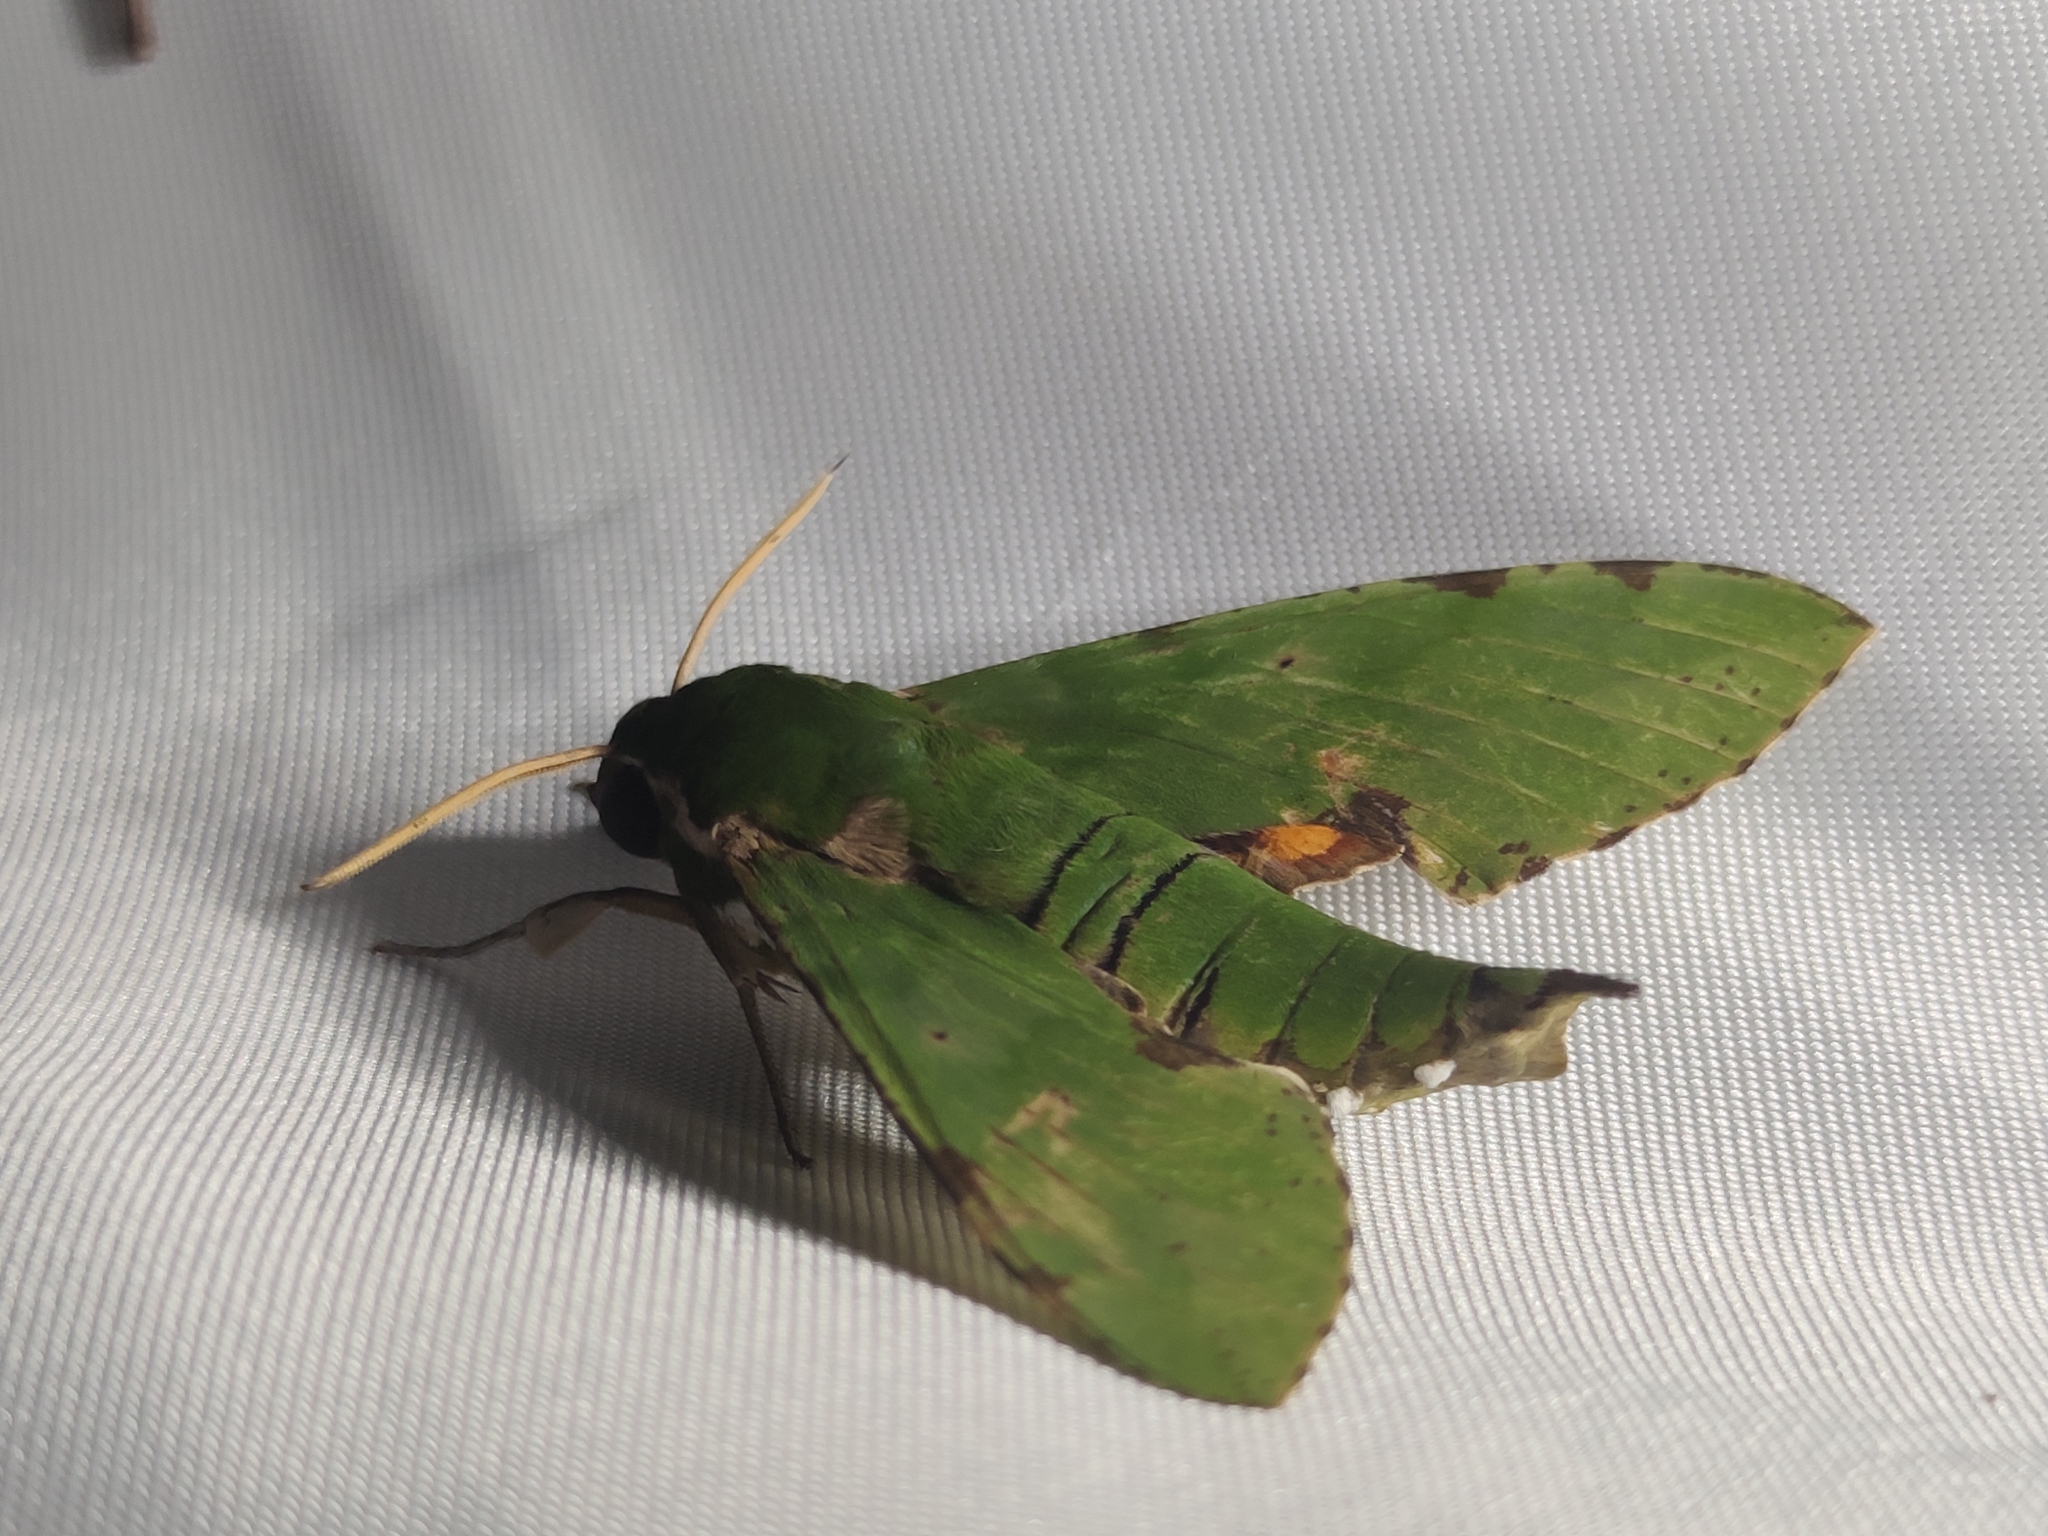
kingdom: Animalia
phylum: Arthropoda
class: Insecta
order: Lepidoptera
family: Sphingidae
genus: Euchloron
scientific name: Euchloron megaera
